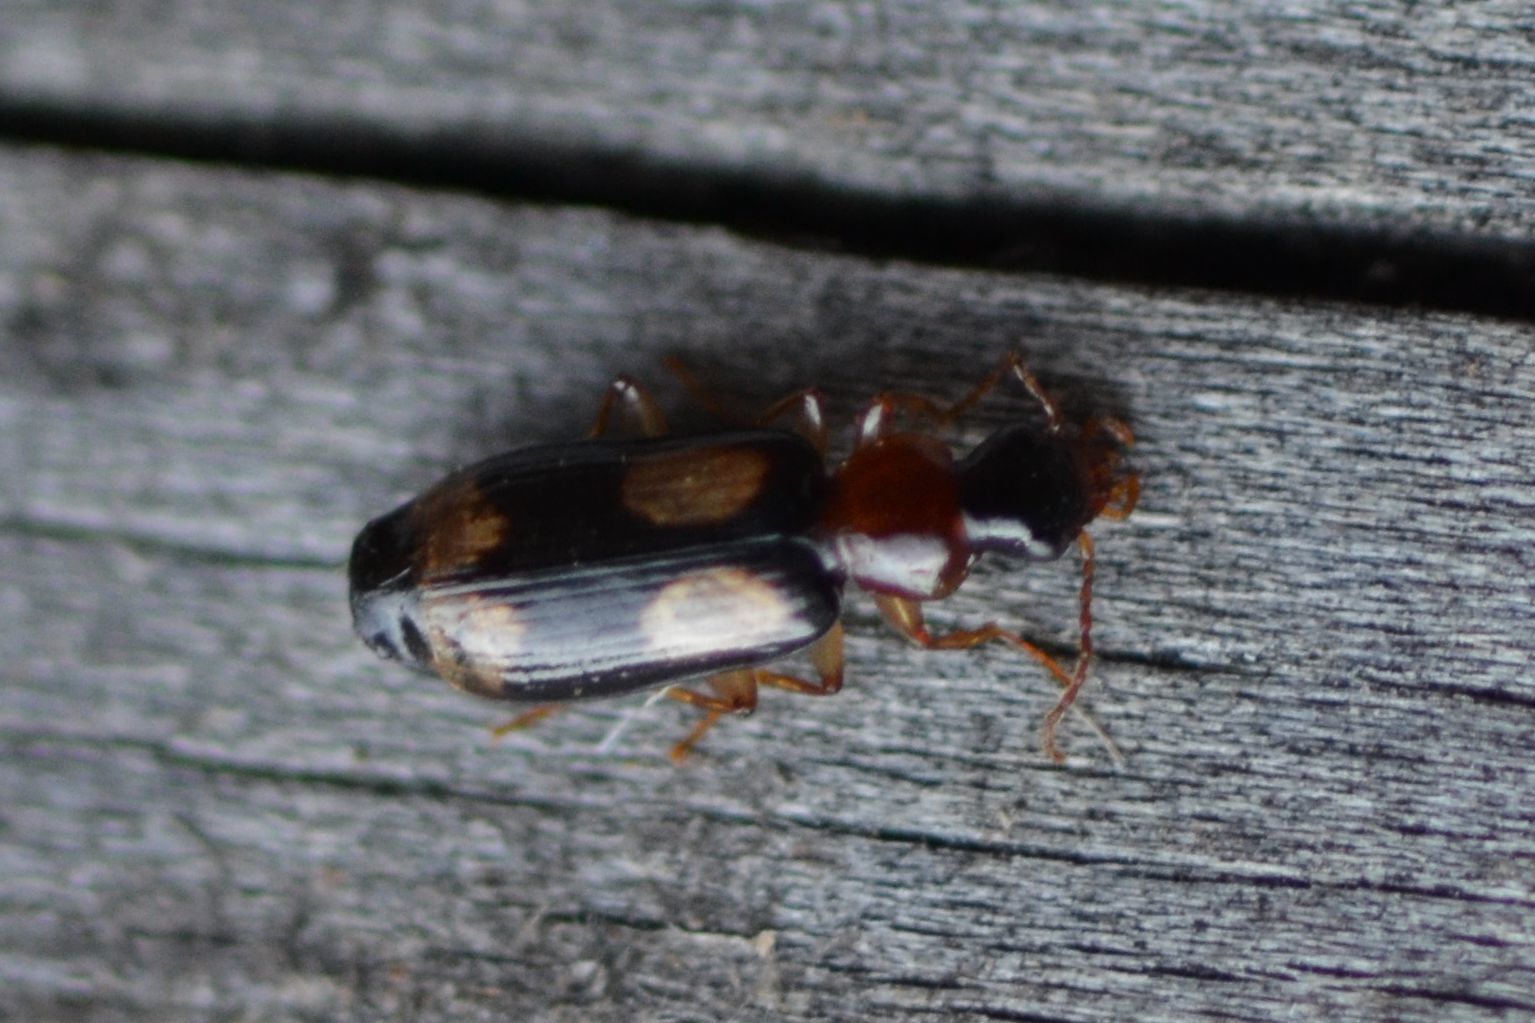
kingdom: Animalia
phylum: Arthropoda
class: Insecta
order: Coleoptera
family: Carabidae
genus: Dromius
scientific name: Dromius quadrimaculatus
